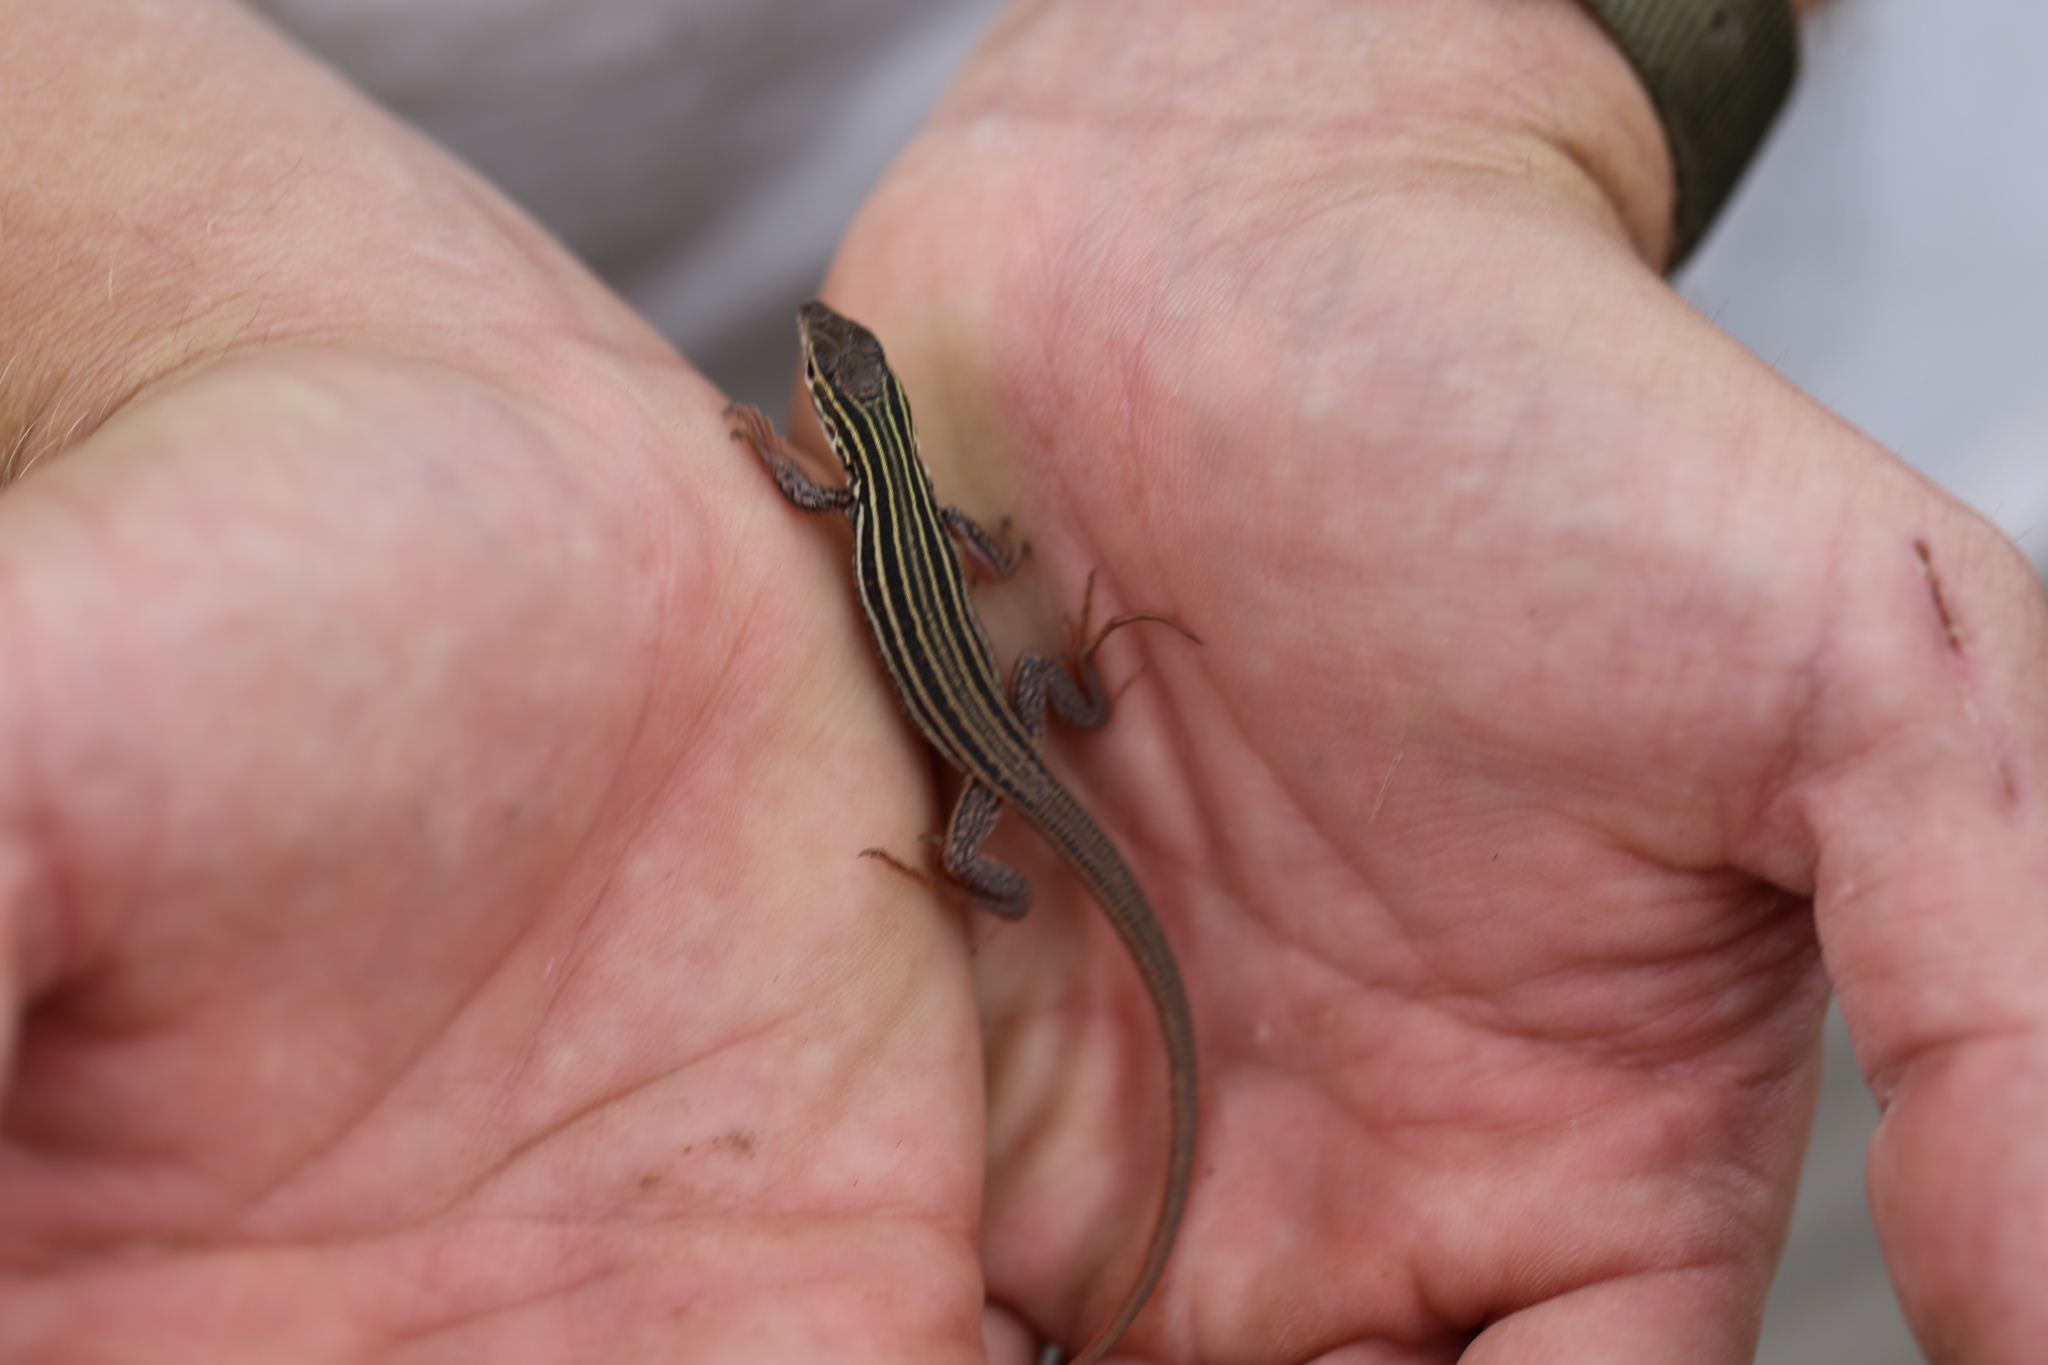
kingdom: Animalia
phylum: Chordata
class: Squamata
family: Teiidae
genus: Aspidoscelis
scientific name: Aspidoscelis gularis
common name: Eastern spotted whiptail
